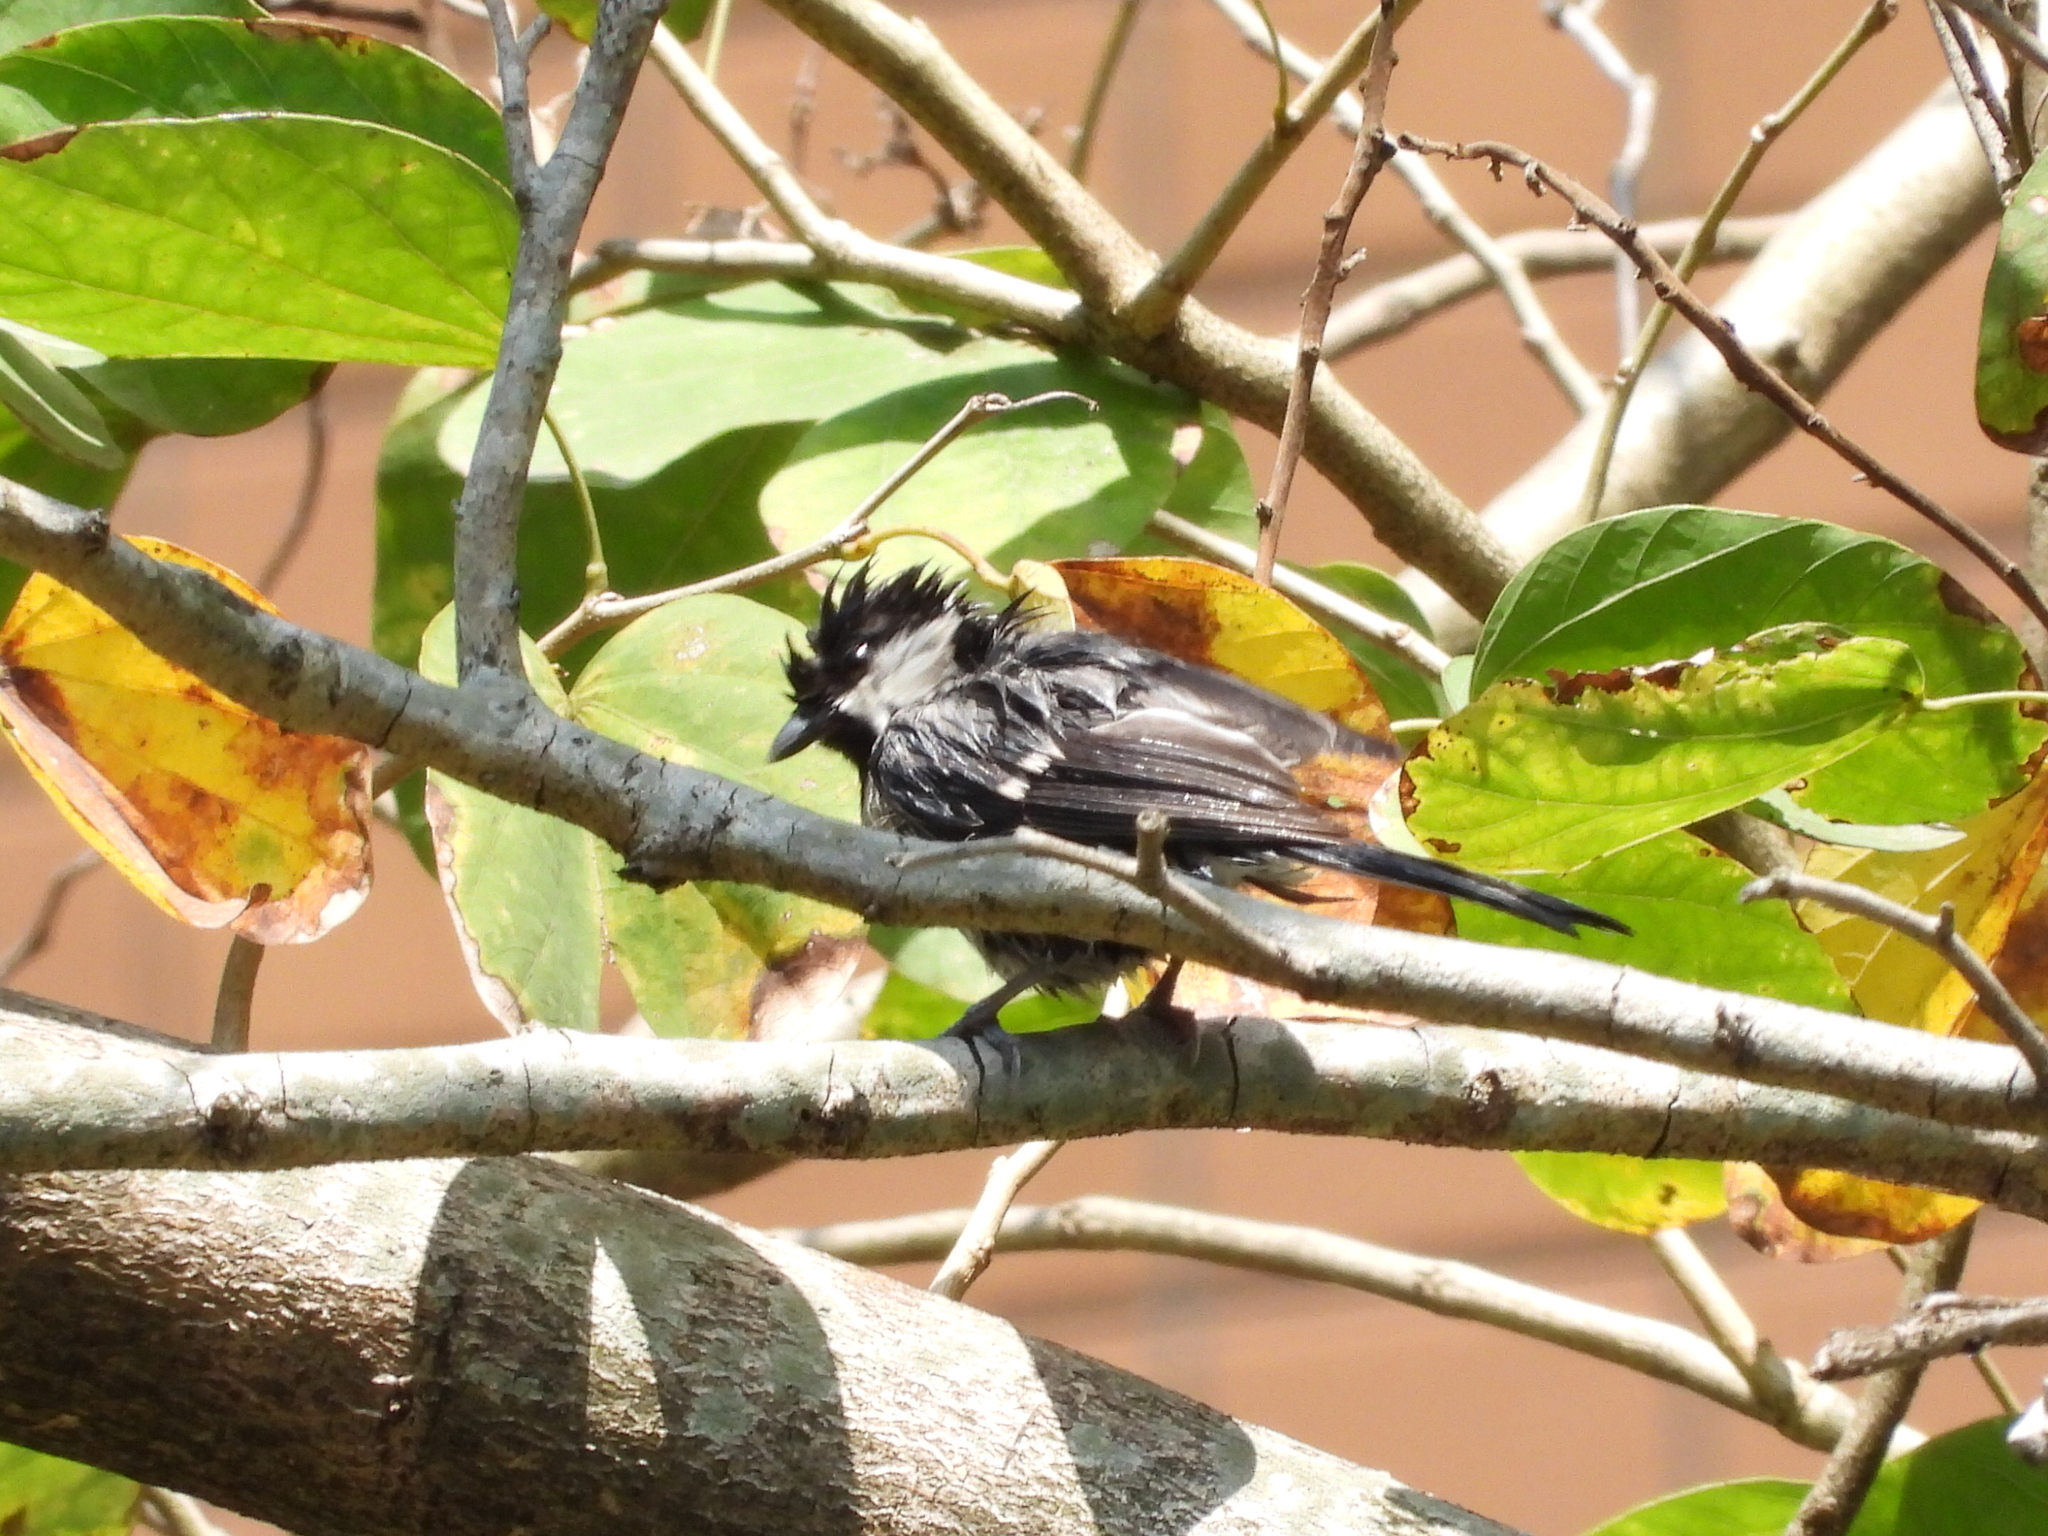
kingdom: Animalia
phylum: Chordata
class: Aves
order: Passeriformes
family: Paridae
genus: Parus
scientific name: Parus minor
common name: Japanese tit
